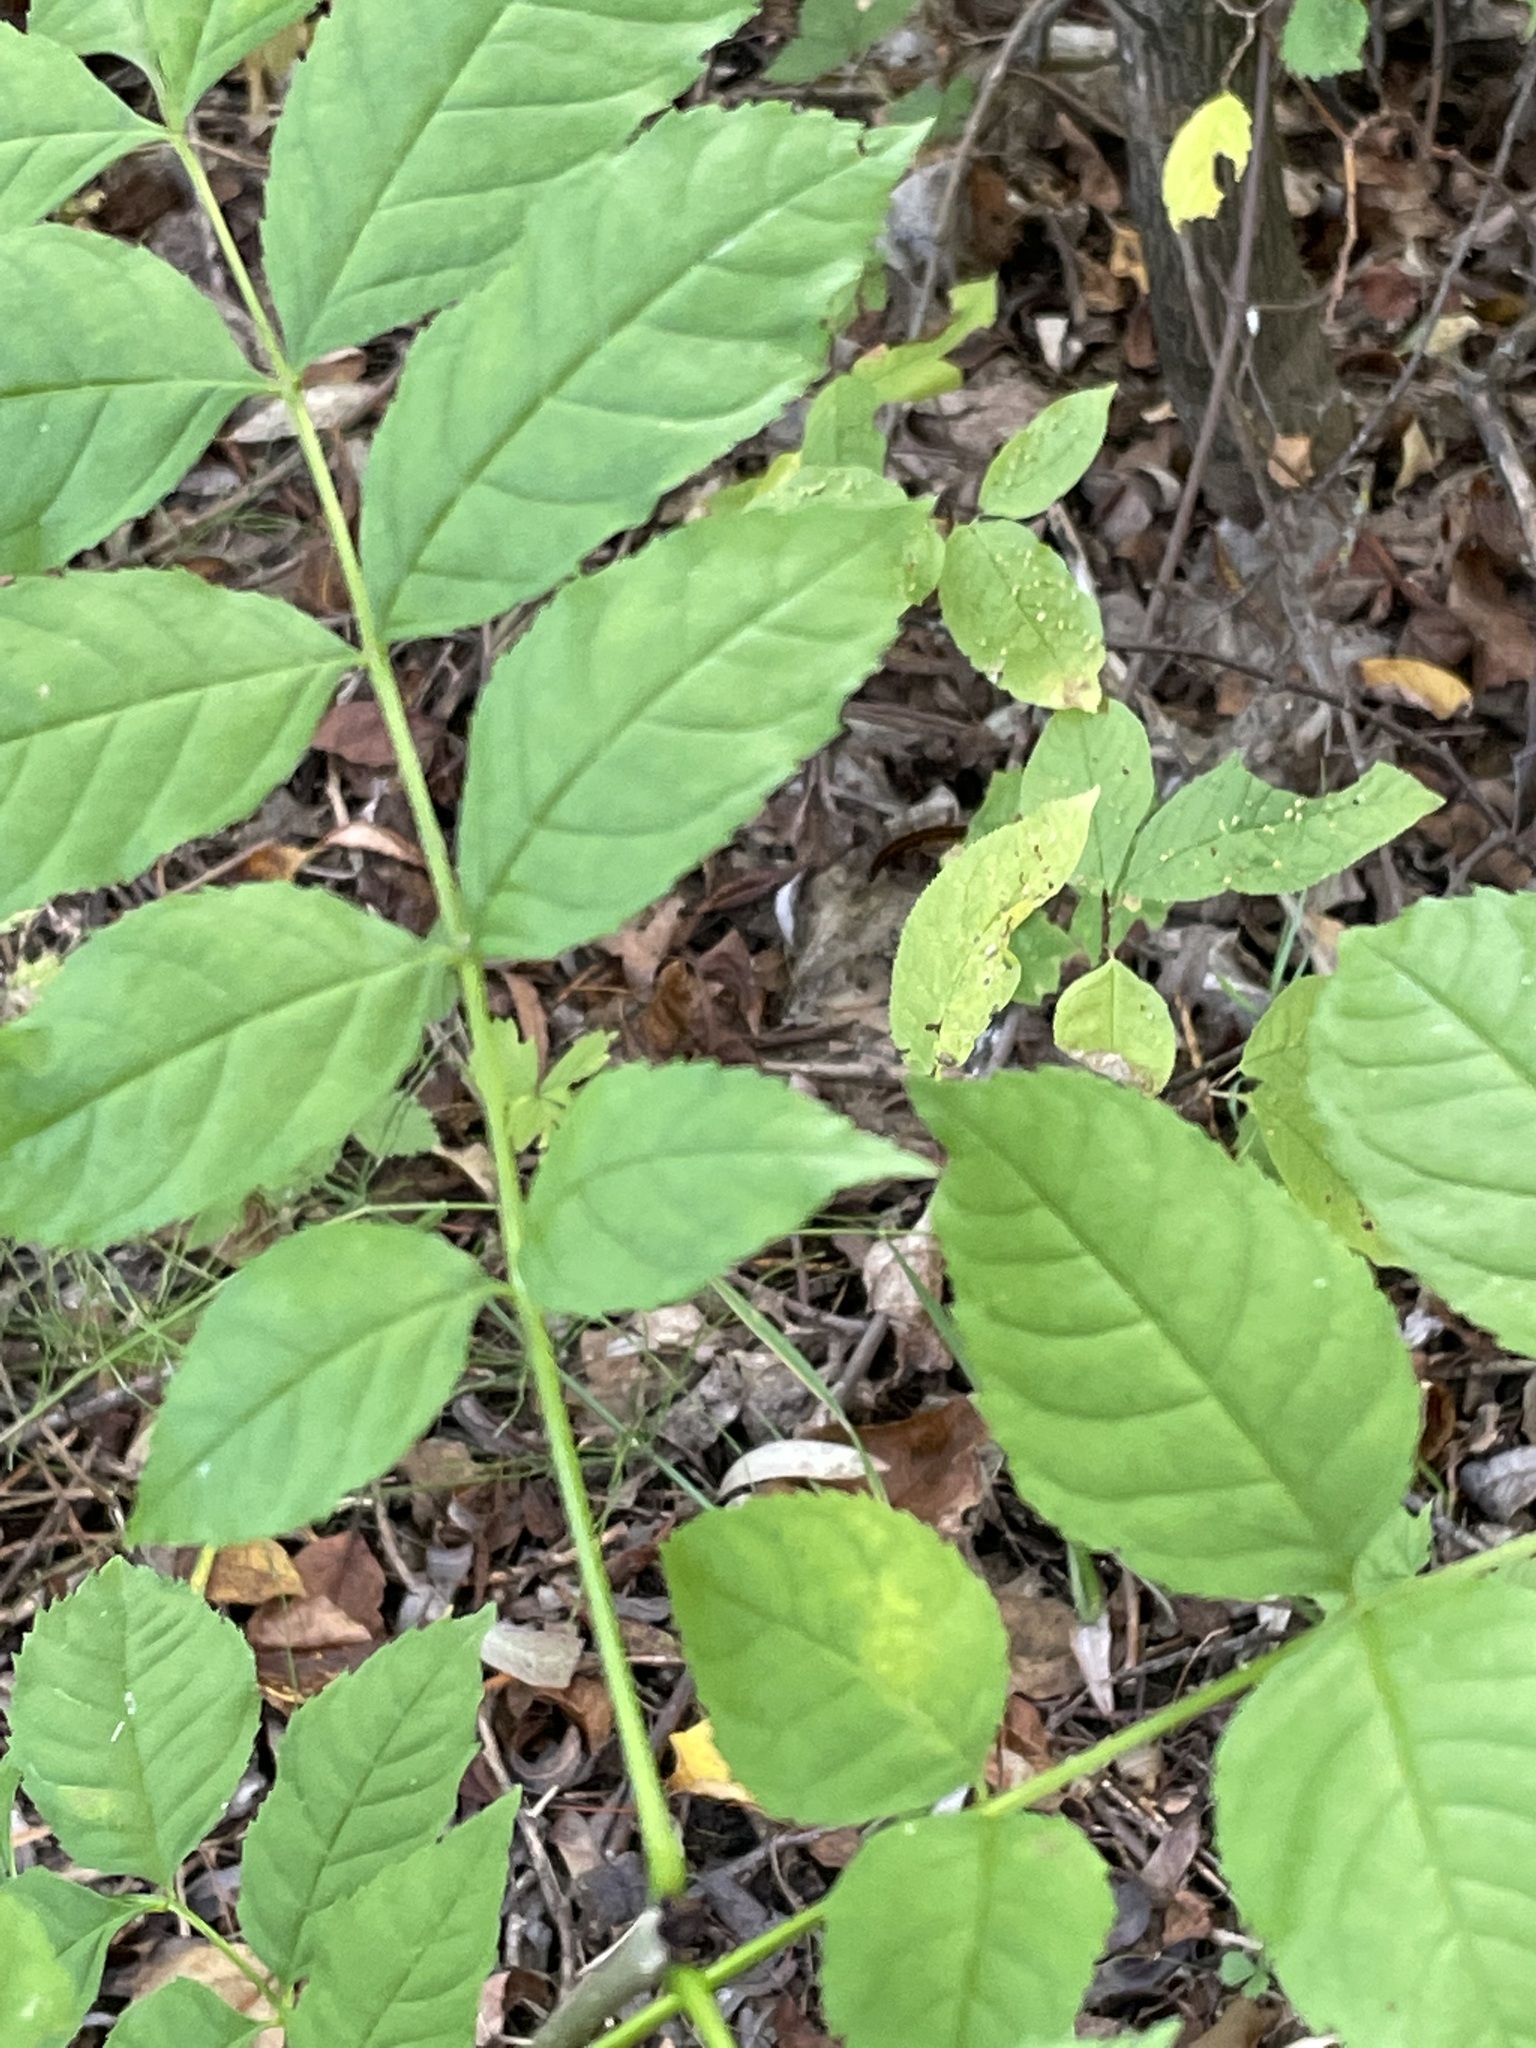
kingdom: Plantae
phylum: Tracheophyta
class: Magnoliopsida
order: Lamiales
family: Oleaceae
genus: Fraxinus
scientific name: Fraxinus excelsior
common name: European ash
